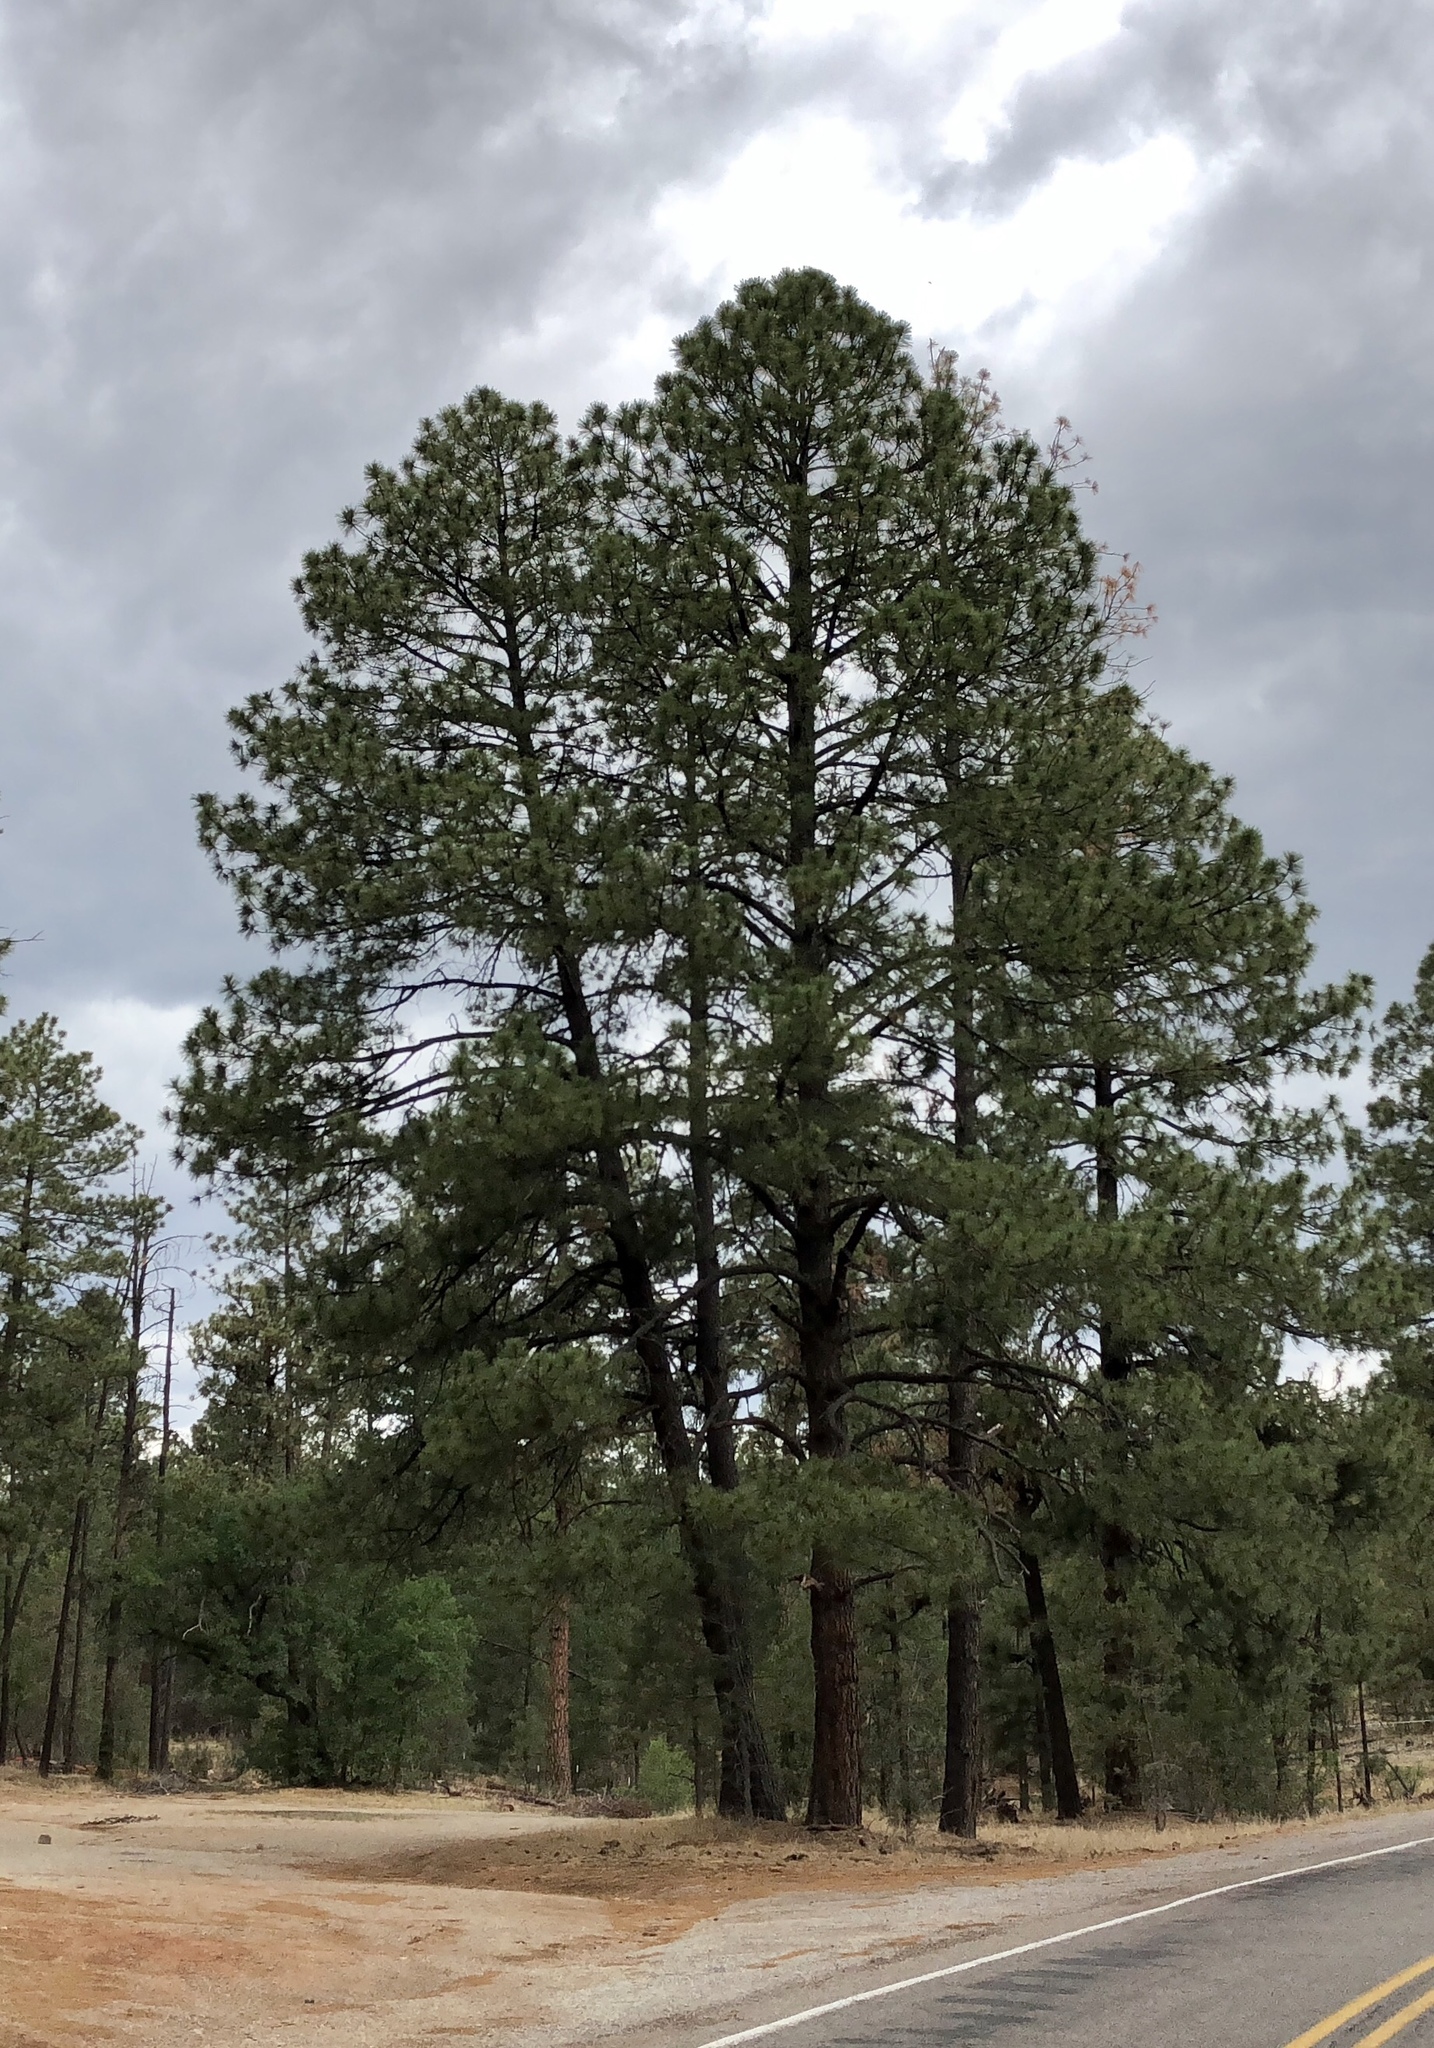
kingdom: Plantae
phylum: Tracheophyta
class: Pinopsida
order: Pinales
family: Pinaceae
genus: Pinus
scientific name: Pinus ponderosa
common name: Western yellow-pine
